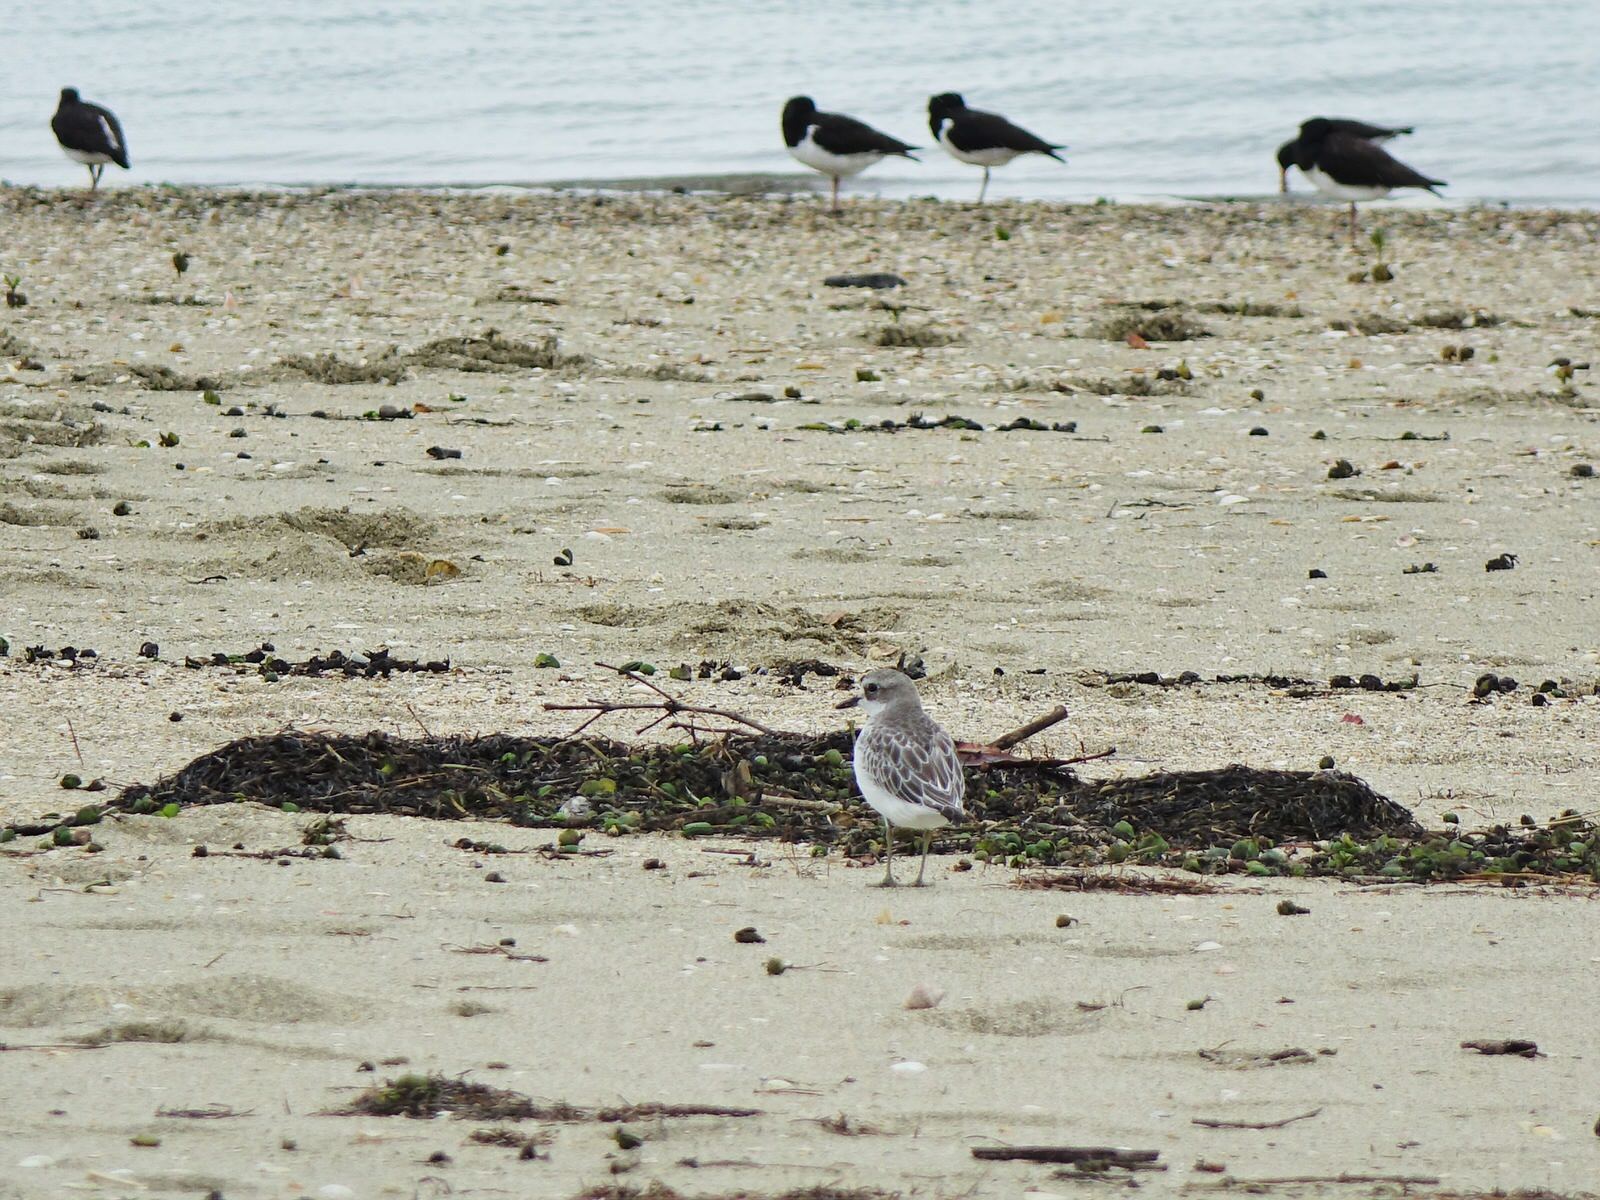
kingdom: Animalia
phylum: Chordata
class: Aves
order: Charadriiformes
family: Charadriidae
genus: Anarhynchus
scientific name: Anarhynchus
